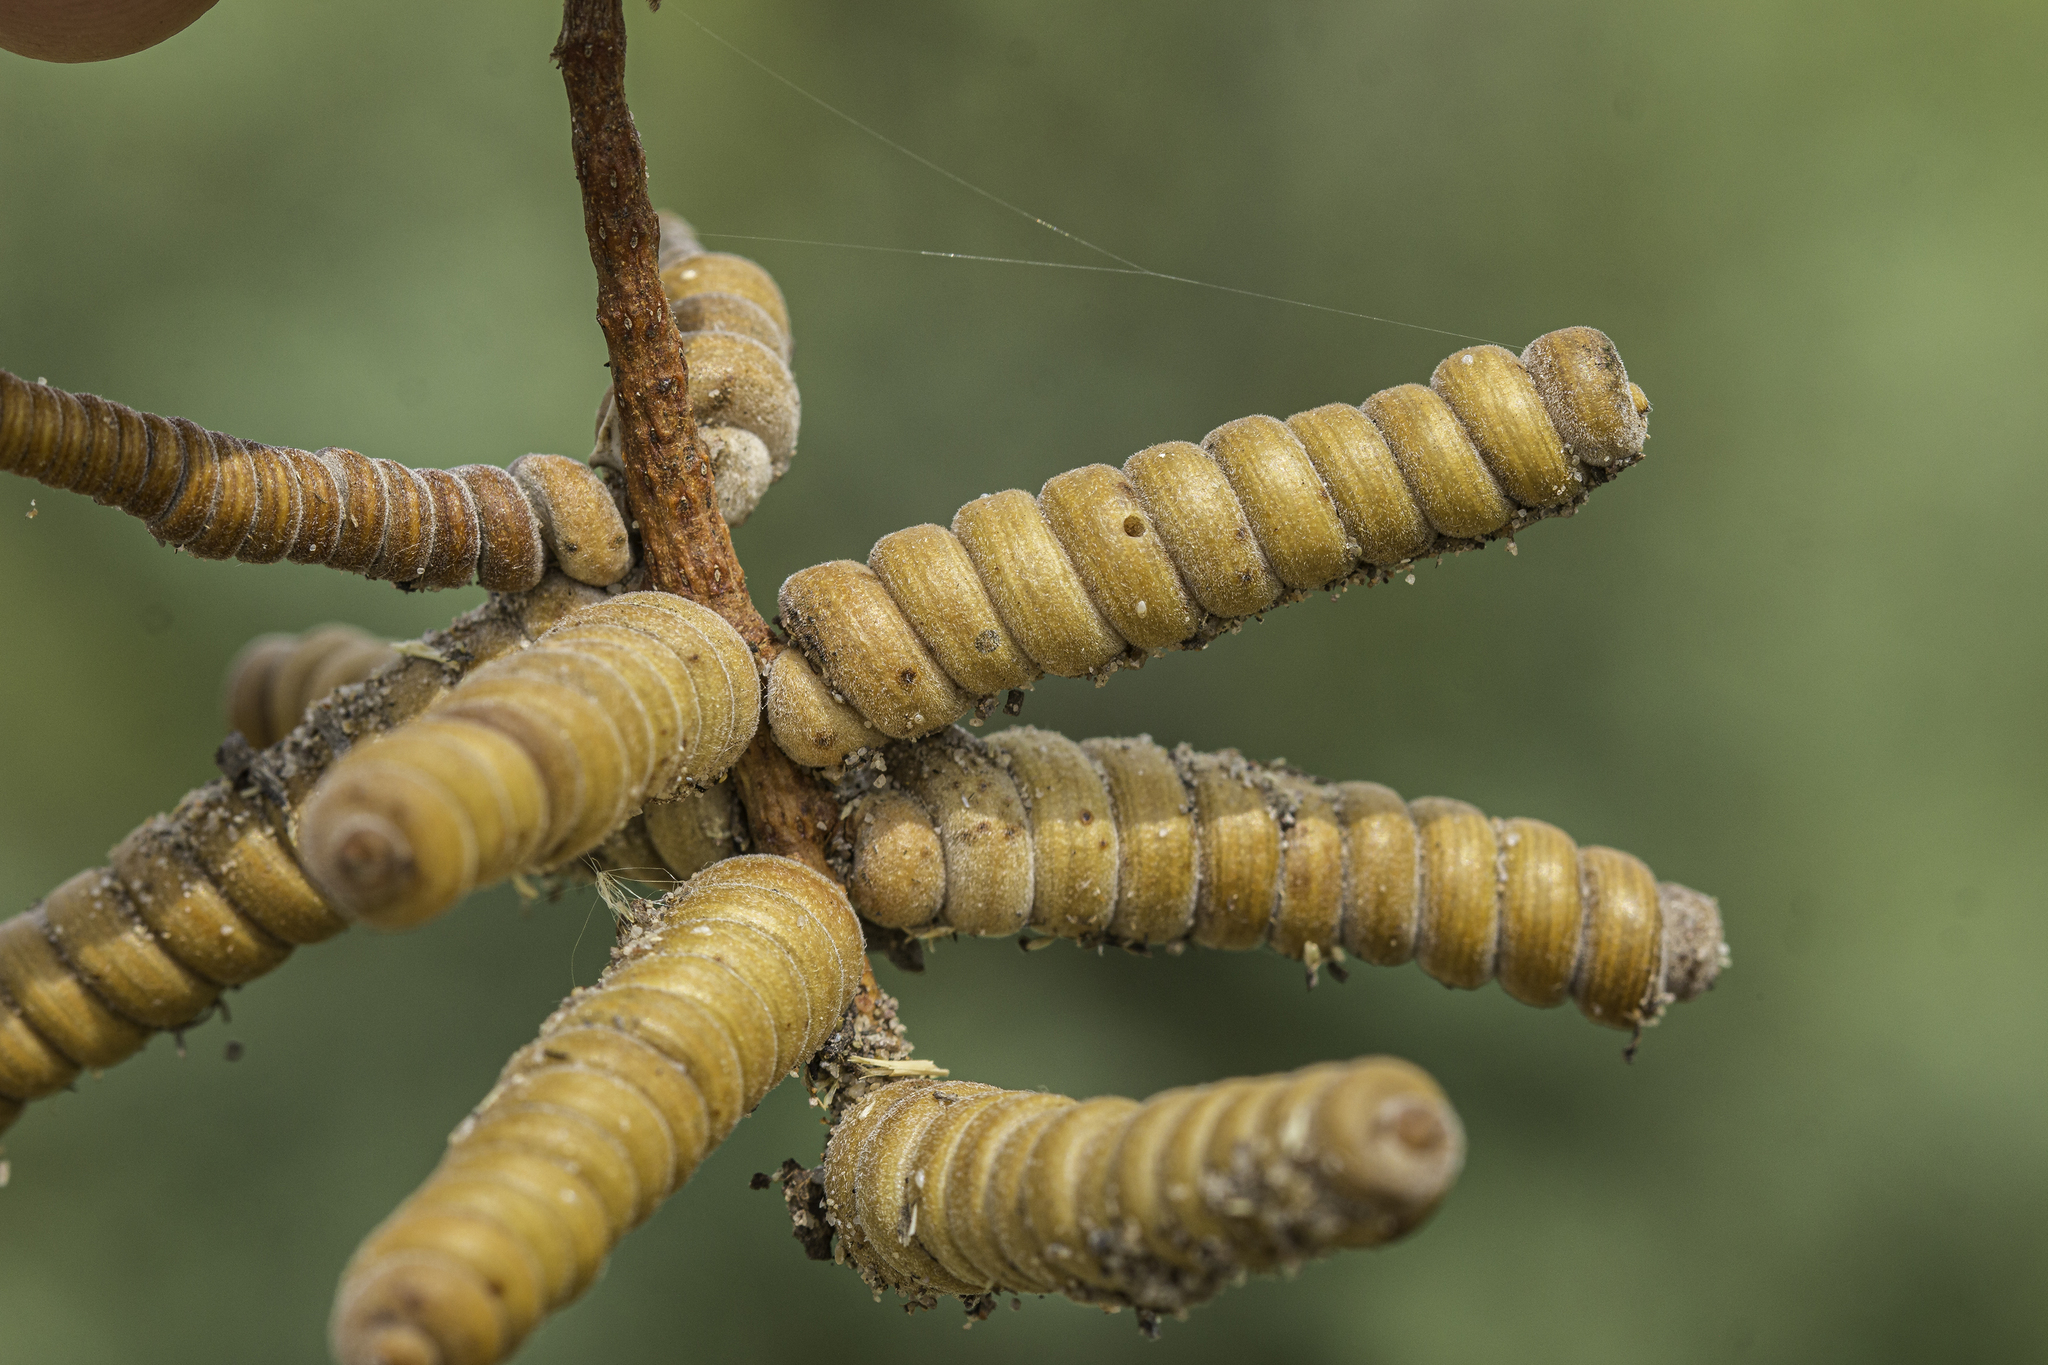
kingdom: Plantae
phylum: Tracheophyta
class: Magnoliopsida
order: Fabales
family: Fabaceae
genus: Prosopis
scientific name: Prosopis pubescens
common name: Screw-bean
